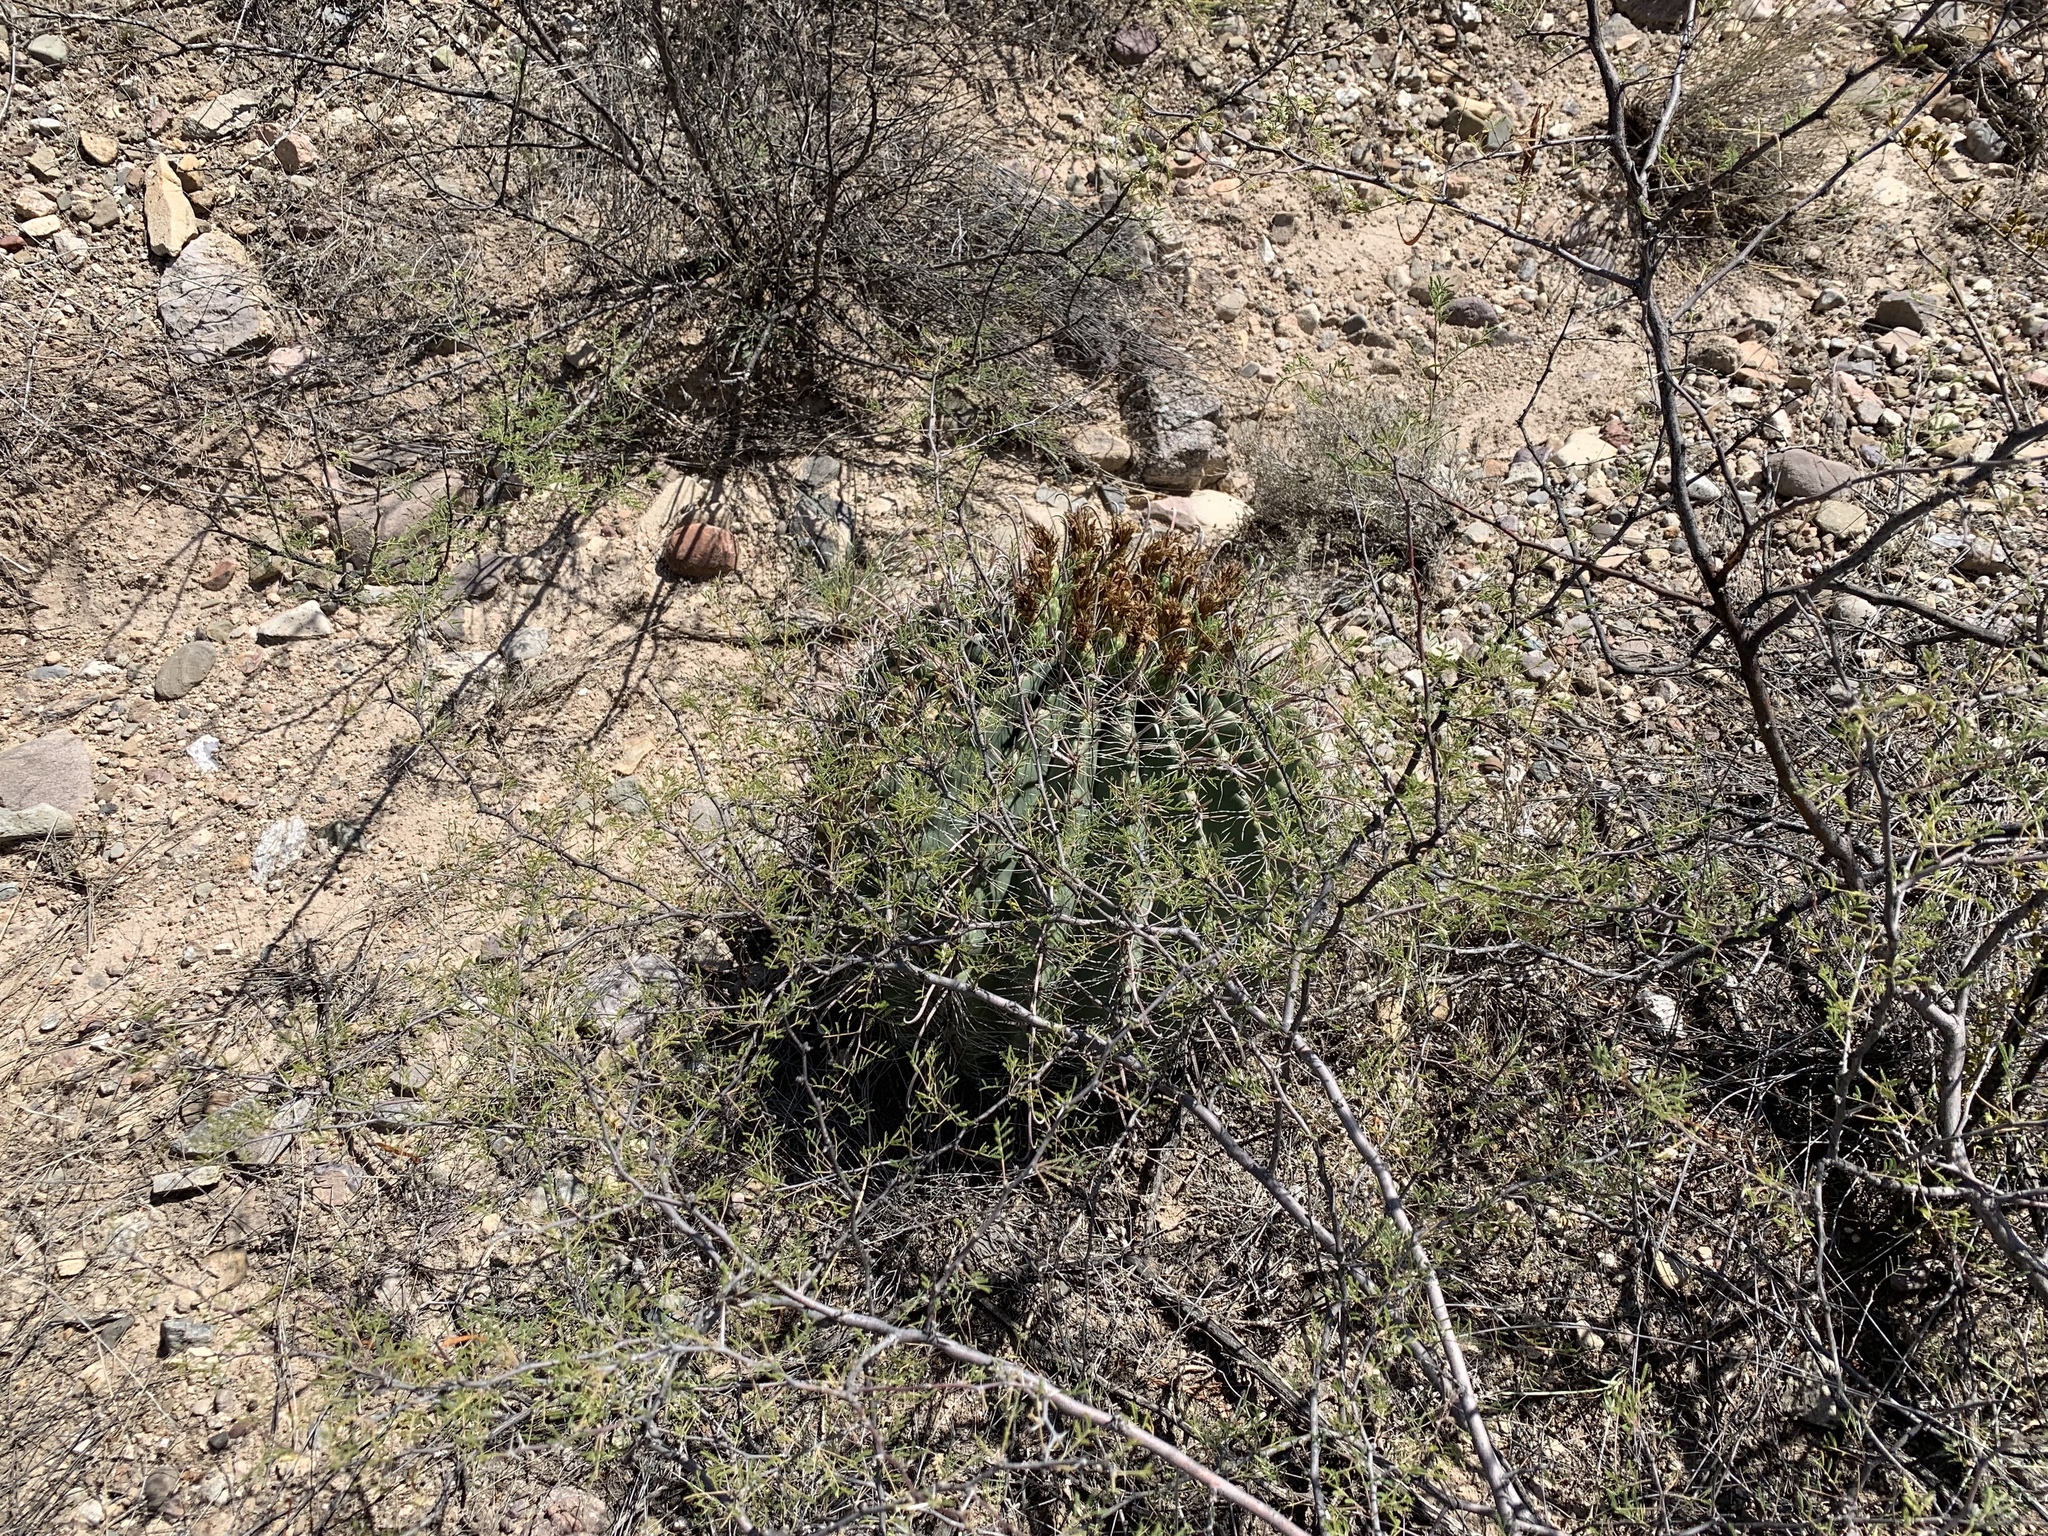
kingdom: Plantae
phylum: Tracheophyta
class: Magnoliopsida
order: Caryophyllales
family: Cactaceae
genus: Ferocactus
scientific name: Ferocactus wislizeni
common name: Candy barrel cactus
